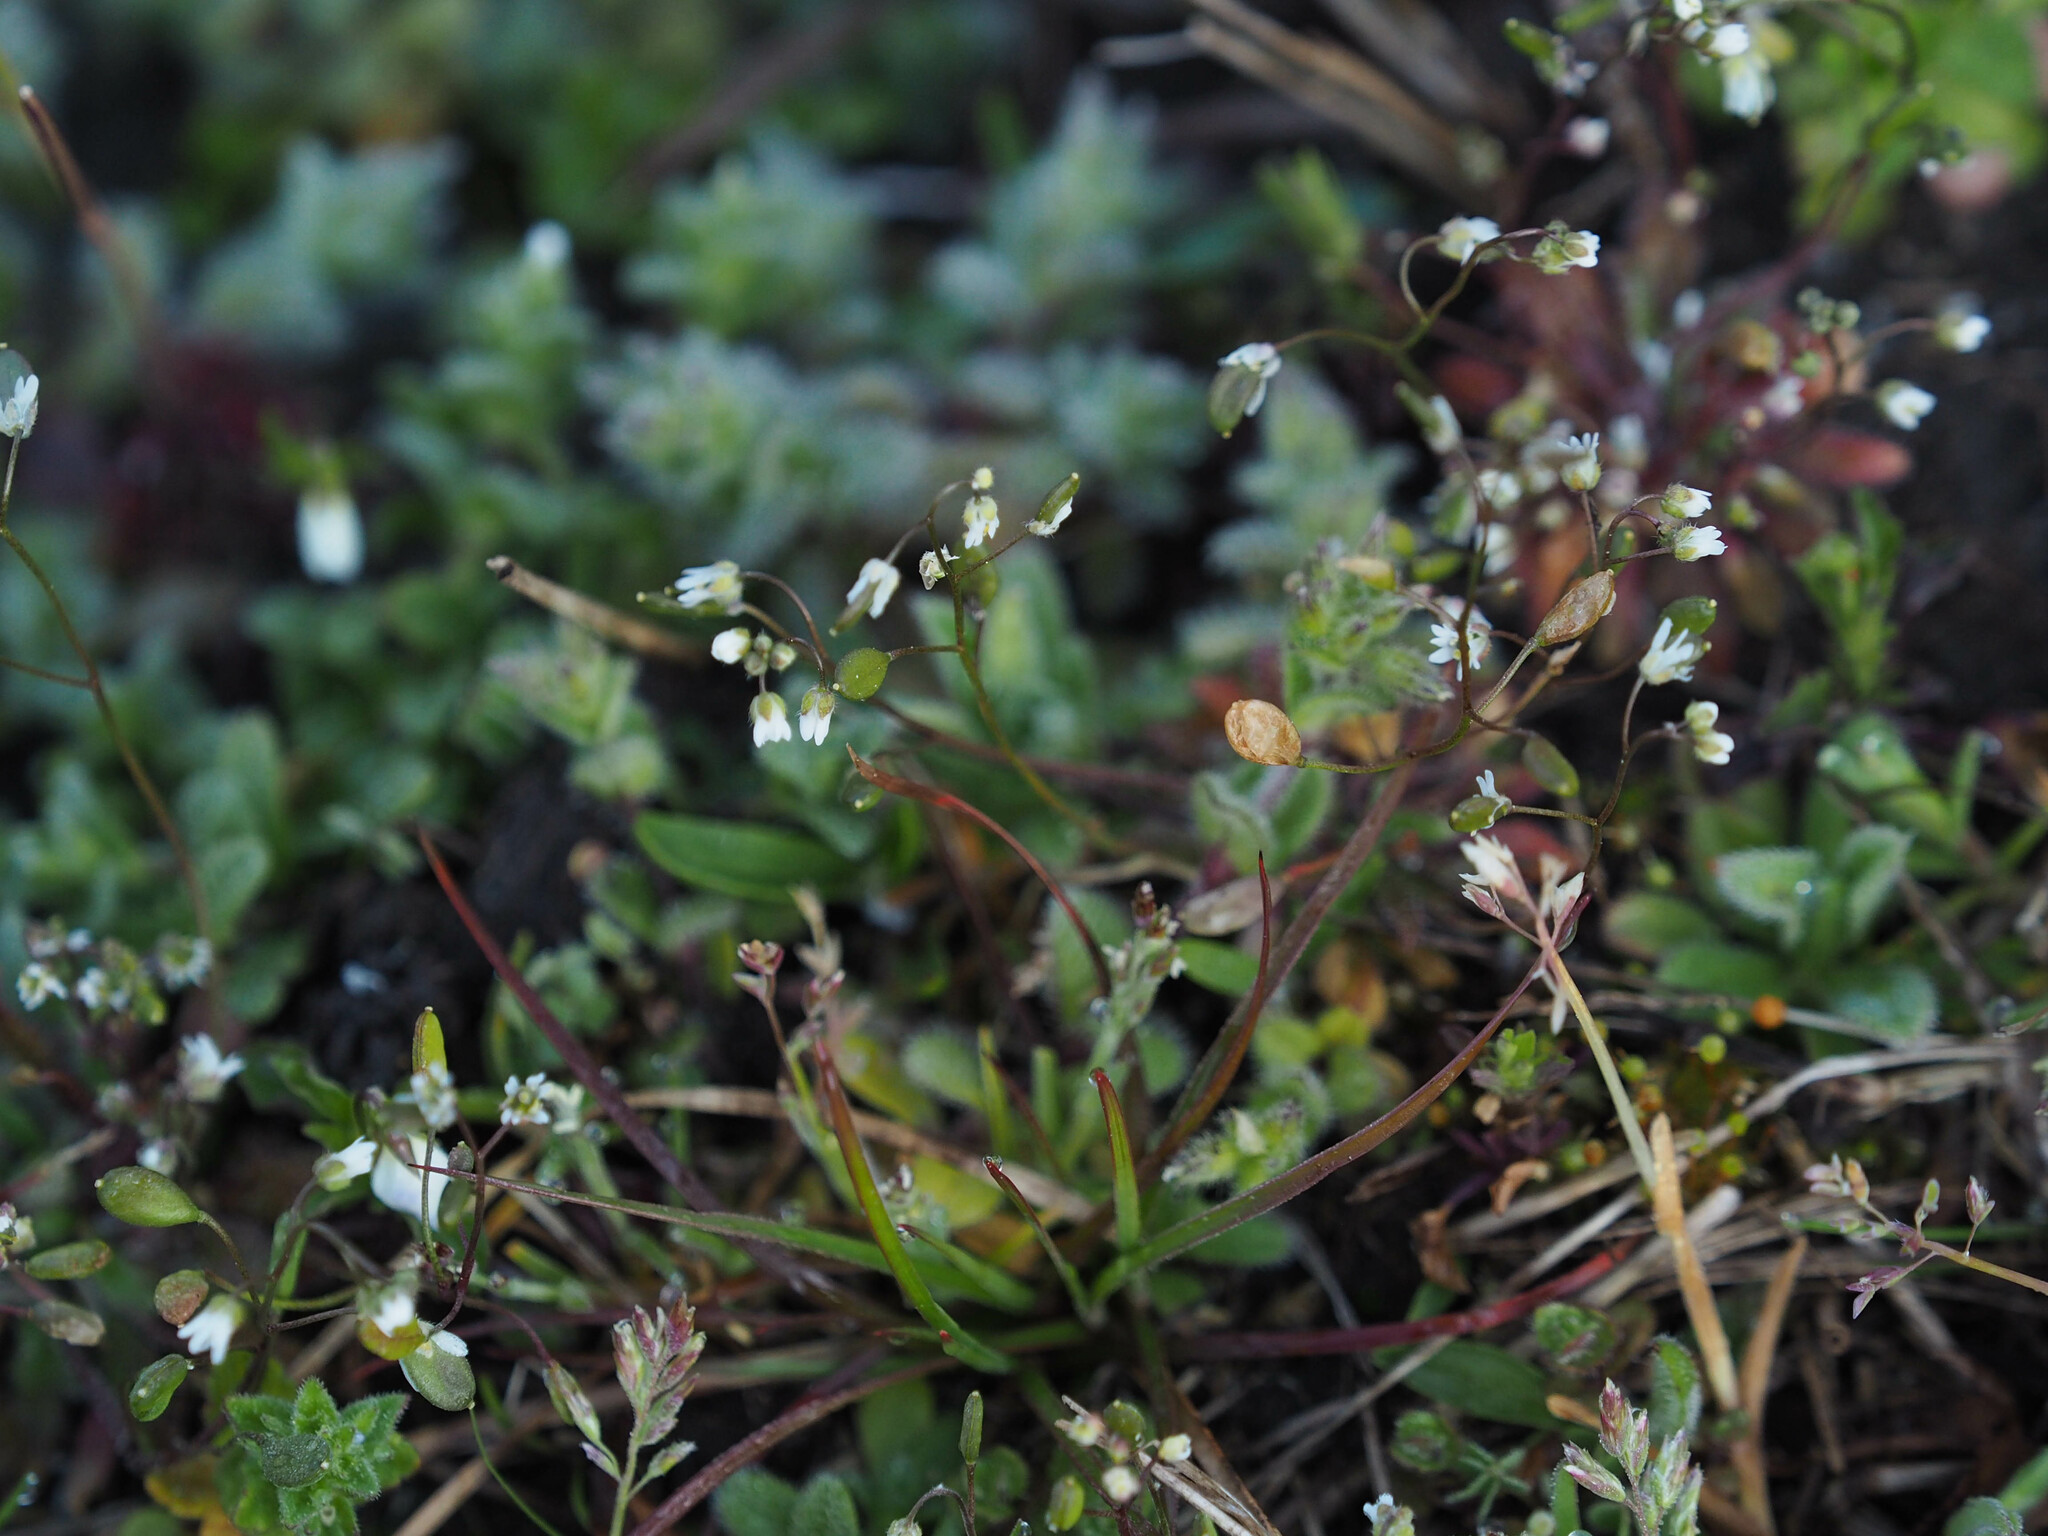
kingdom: Plantae
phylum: Tracheophyta
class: Magnoliopsida
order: Brassicales
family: Brassicaceae
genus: Draba
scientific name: Draba verna
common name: Spring draba
